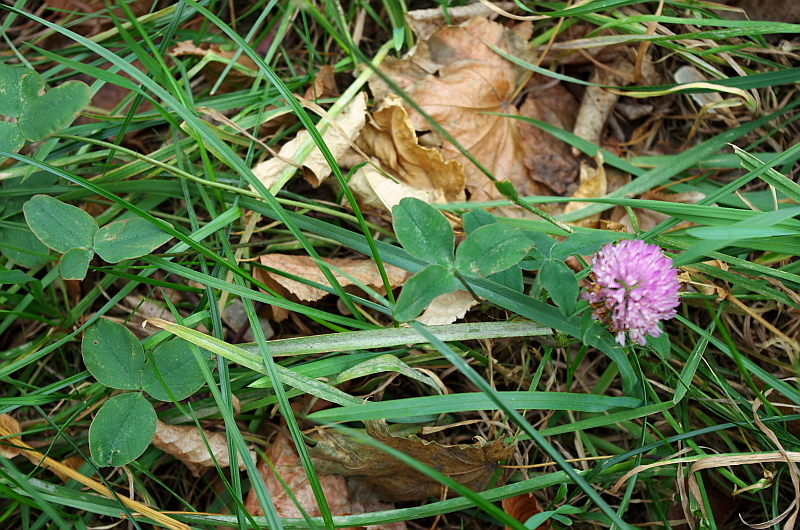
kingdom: Plantae
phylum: Tracheophyta
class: Magnoliopsida
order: Fabales
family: Fabaceae
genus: Trifolium
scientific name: Trifolium pratense
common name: Red clover
